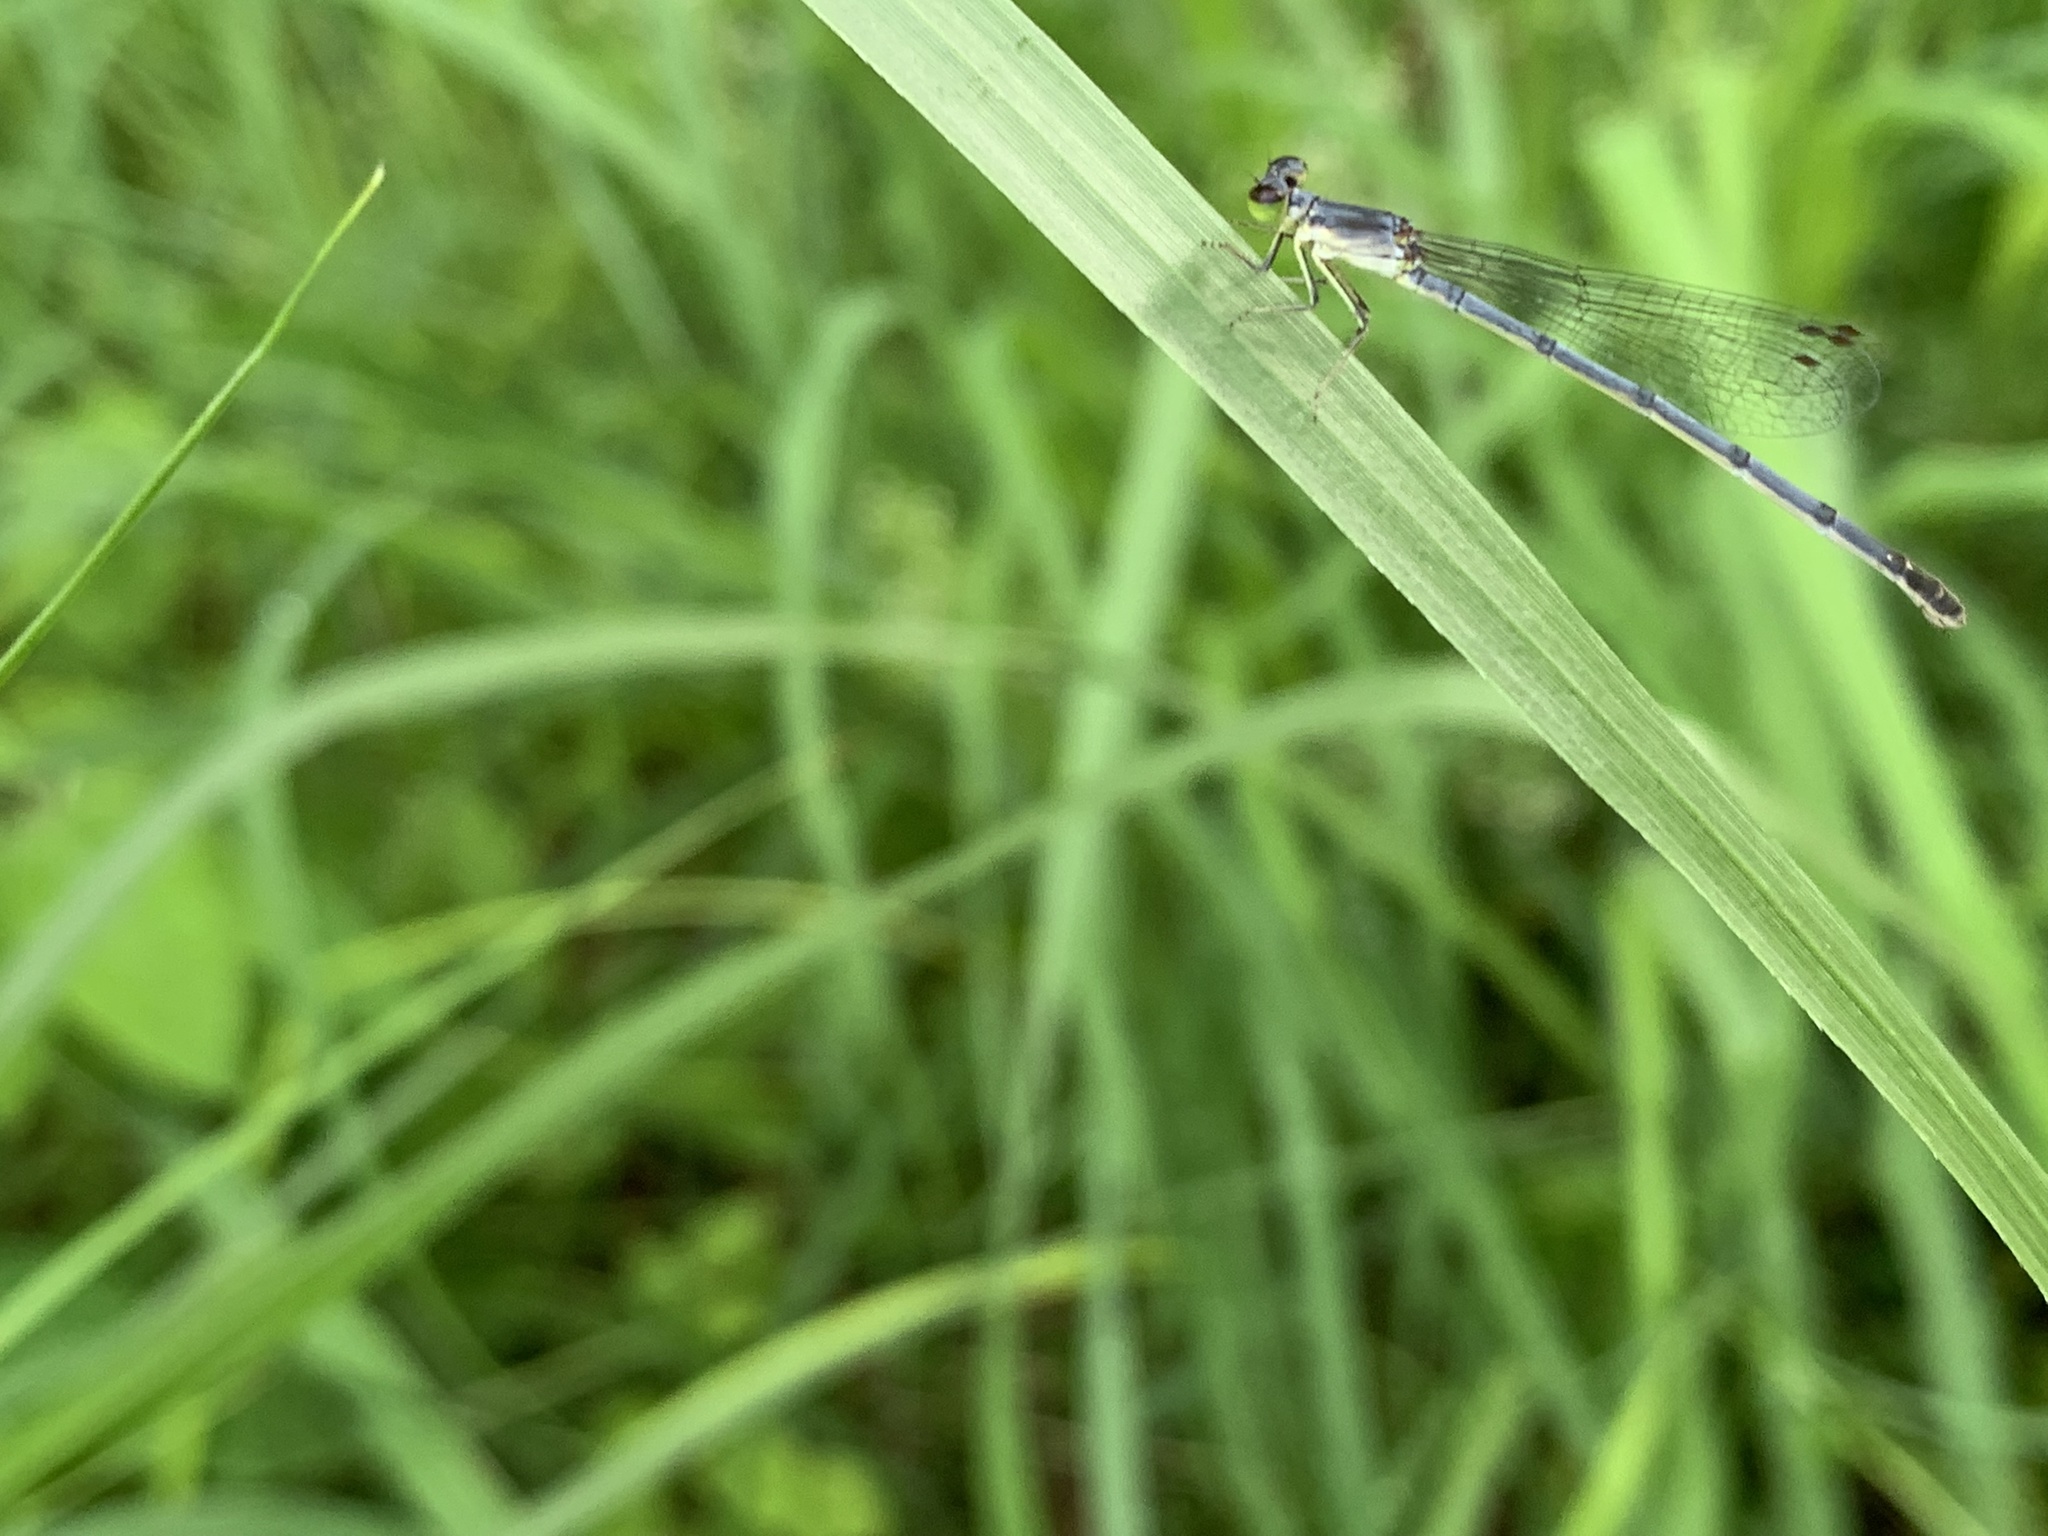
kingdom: Animalia
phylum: Arthropoda
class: Insecta
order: Odonata
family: Coenagrionidae
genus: Ischnura
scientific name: Ischnura posita
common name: Fragile forktail
